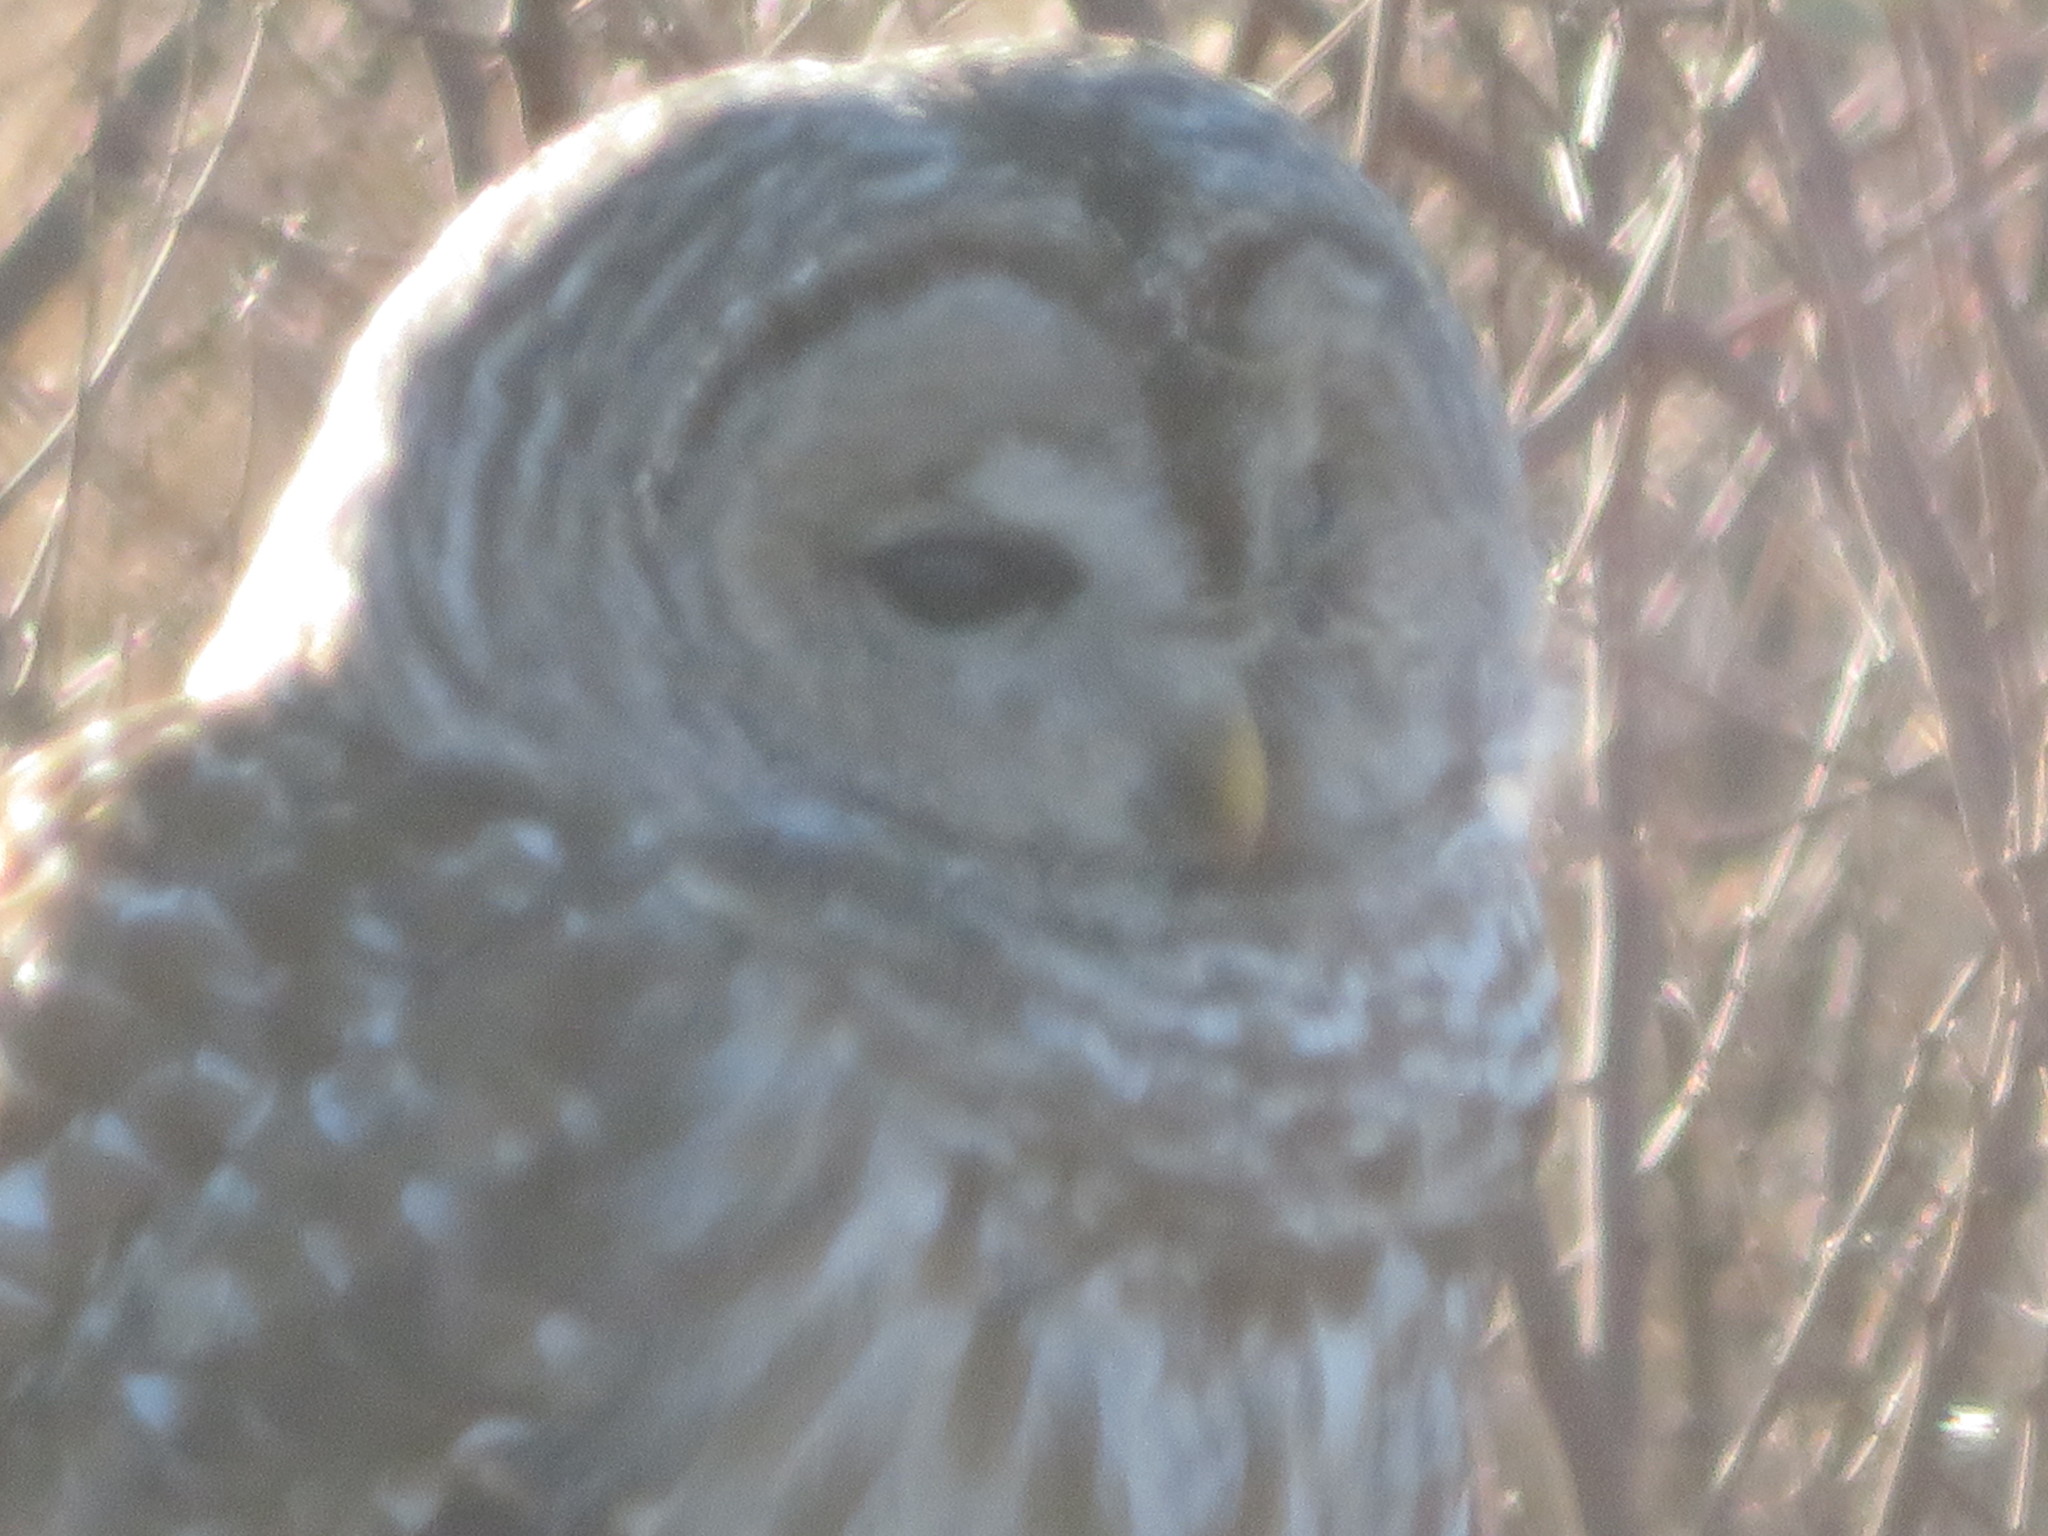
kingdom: Animalia
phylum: Chordata
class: Aves
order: Strigiformes
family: Strigidae
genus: Strix
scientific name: Strix varia
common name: Barred owl
